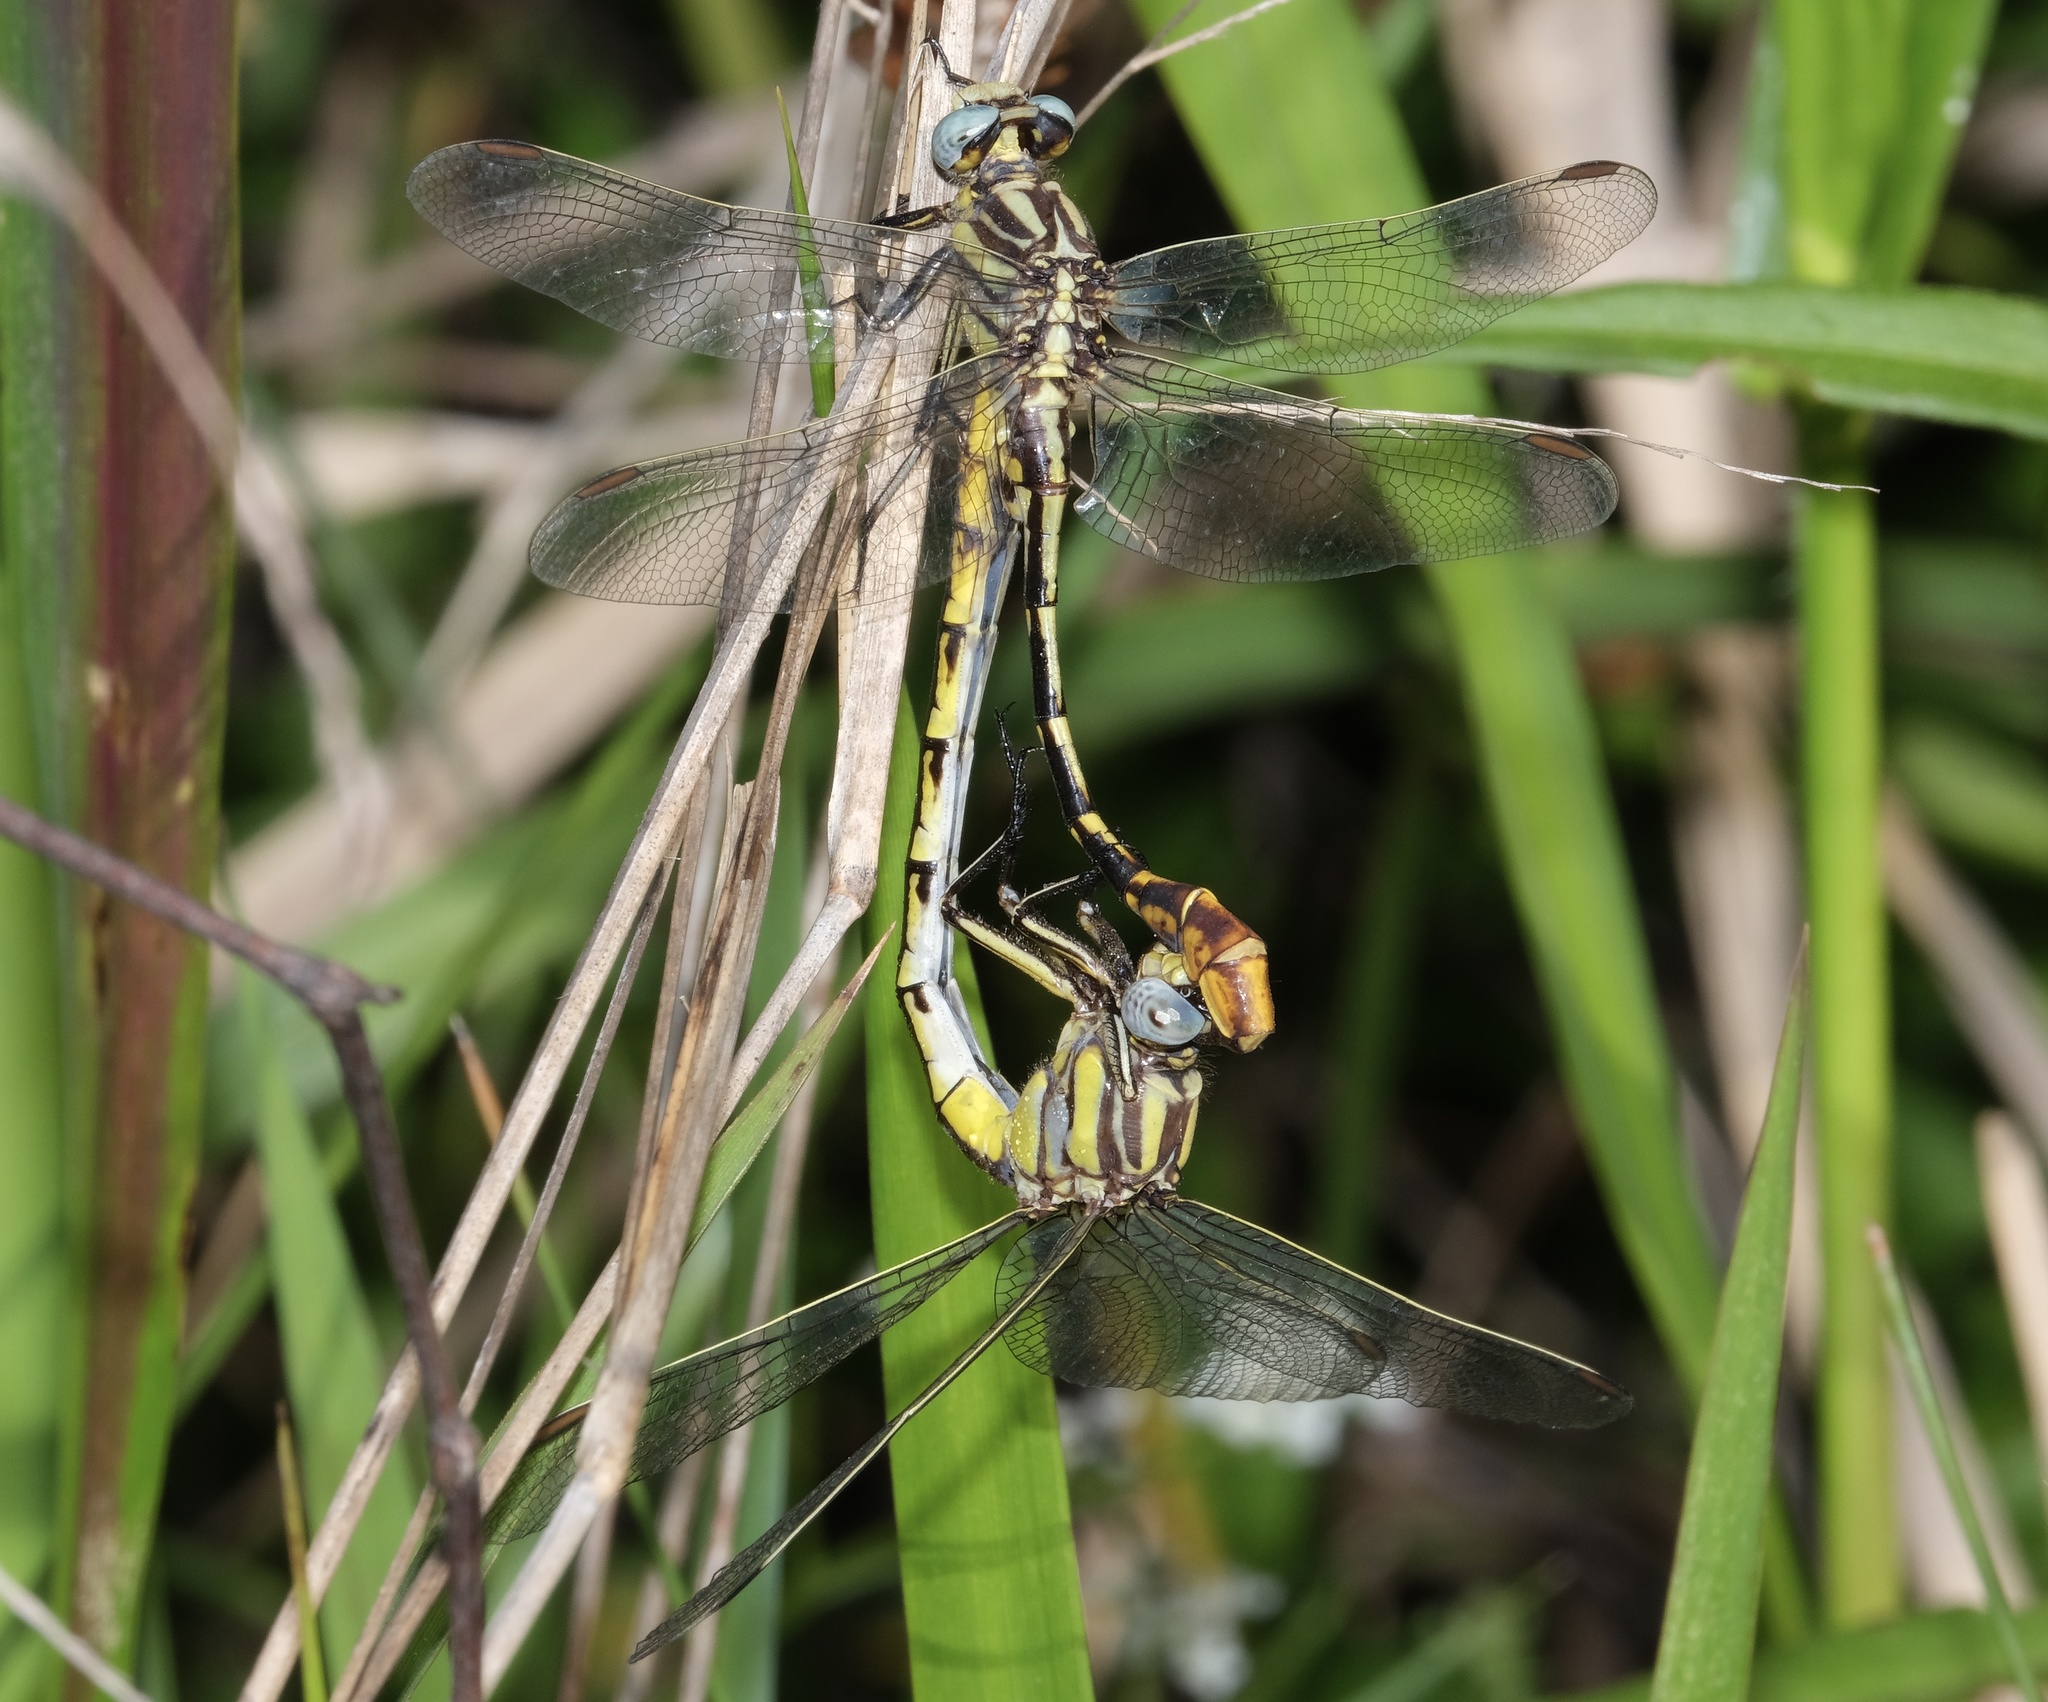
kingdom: Animalia
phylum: Arthropoda
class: Insecta
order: Odonata
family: Gomphidae
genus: Phanogomphus
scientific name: Phanogomphus militaris
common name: Sulphur-tipped clubtail
